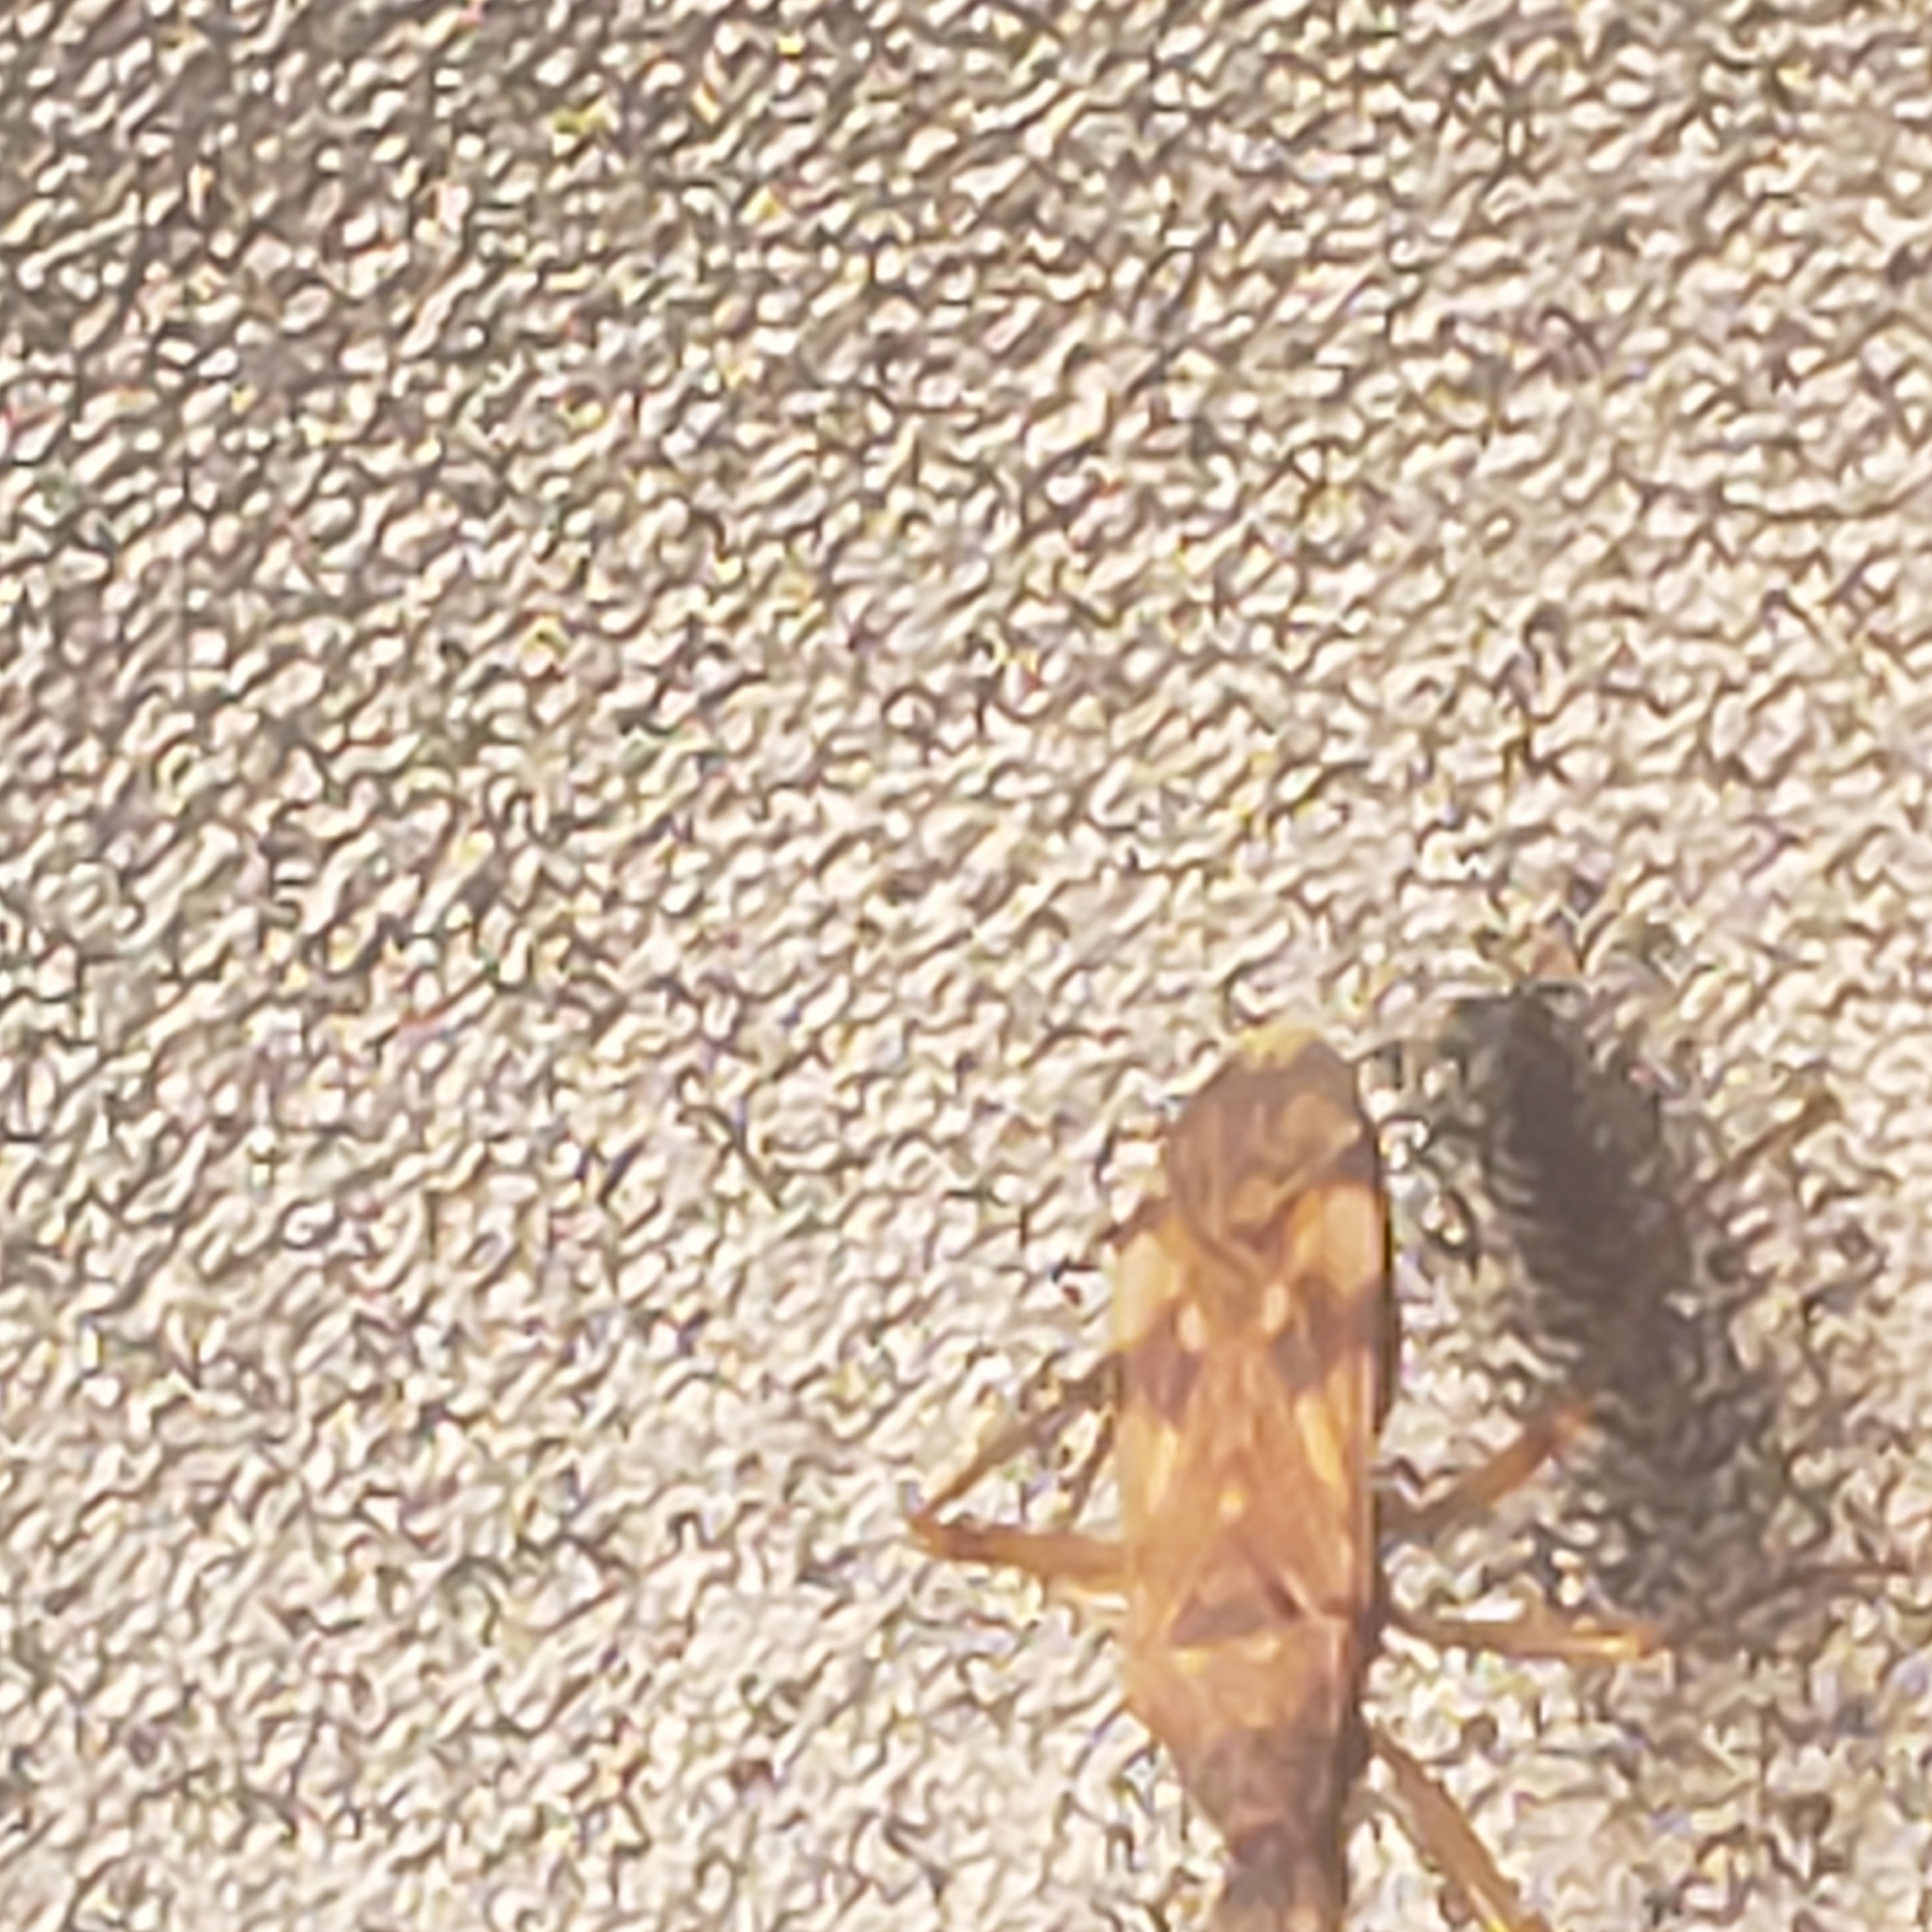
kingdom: Animalia
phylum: Arthropoda
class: Insecta
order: Hemiptera
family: Rhyparochromidae
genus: Ozophora
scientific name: Ozophora picturata
